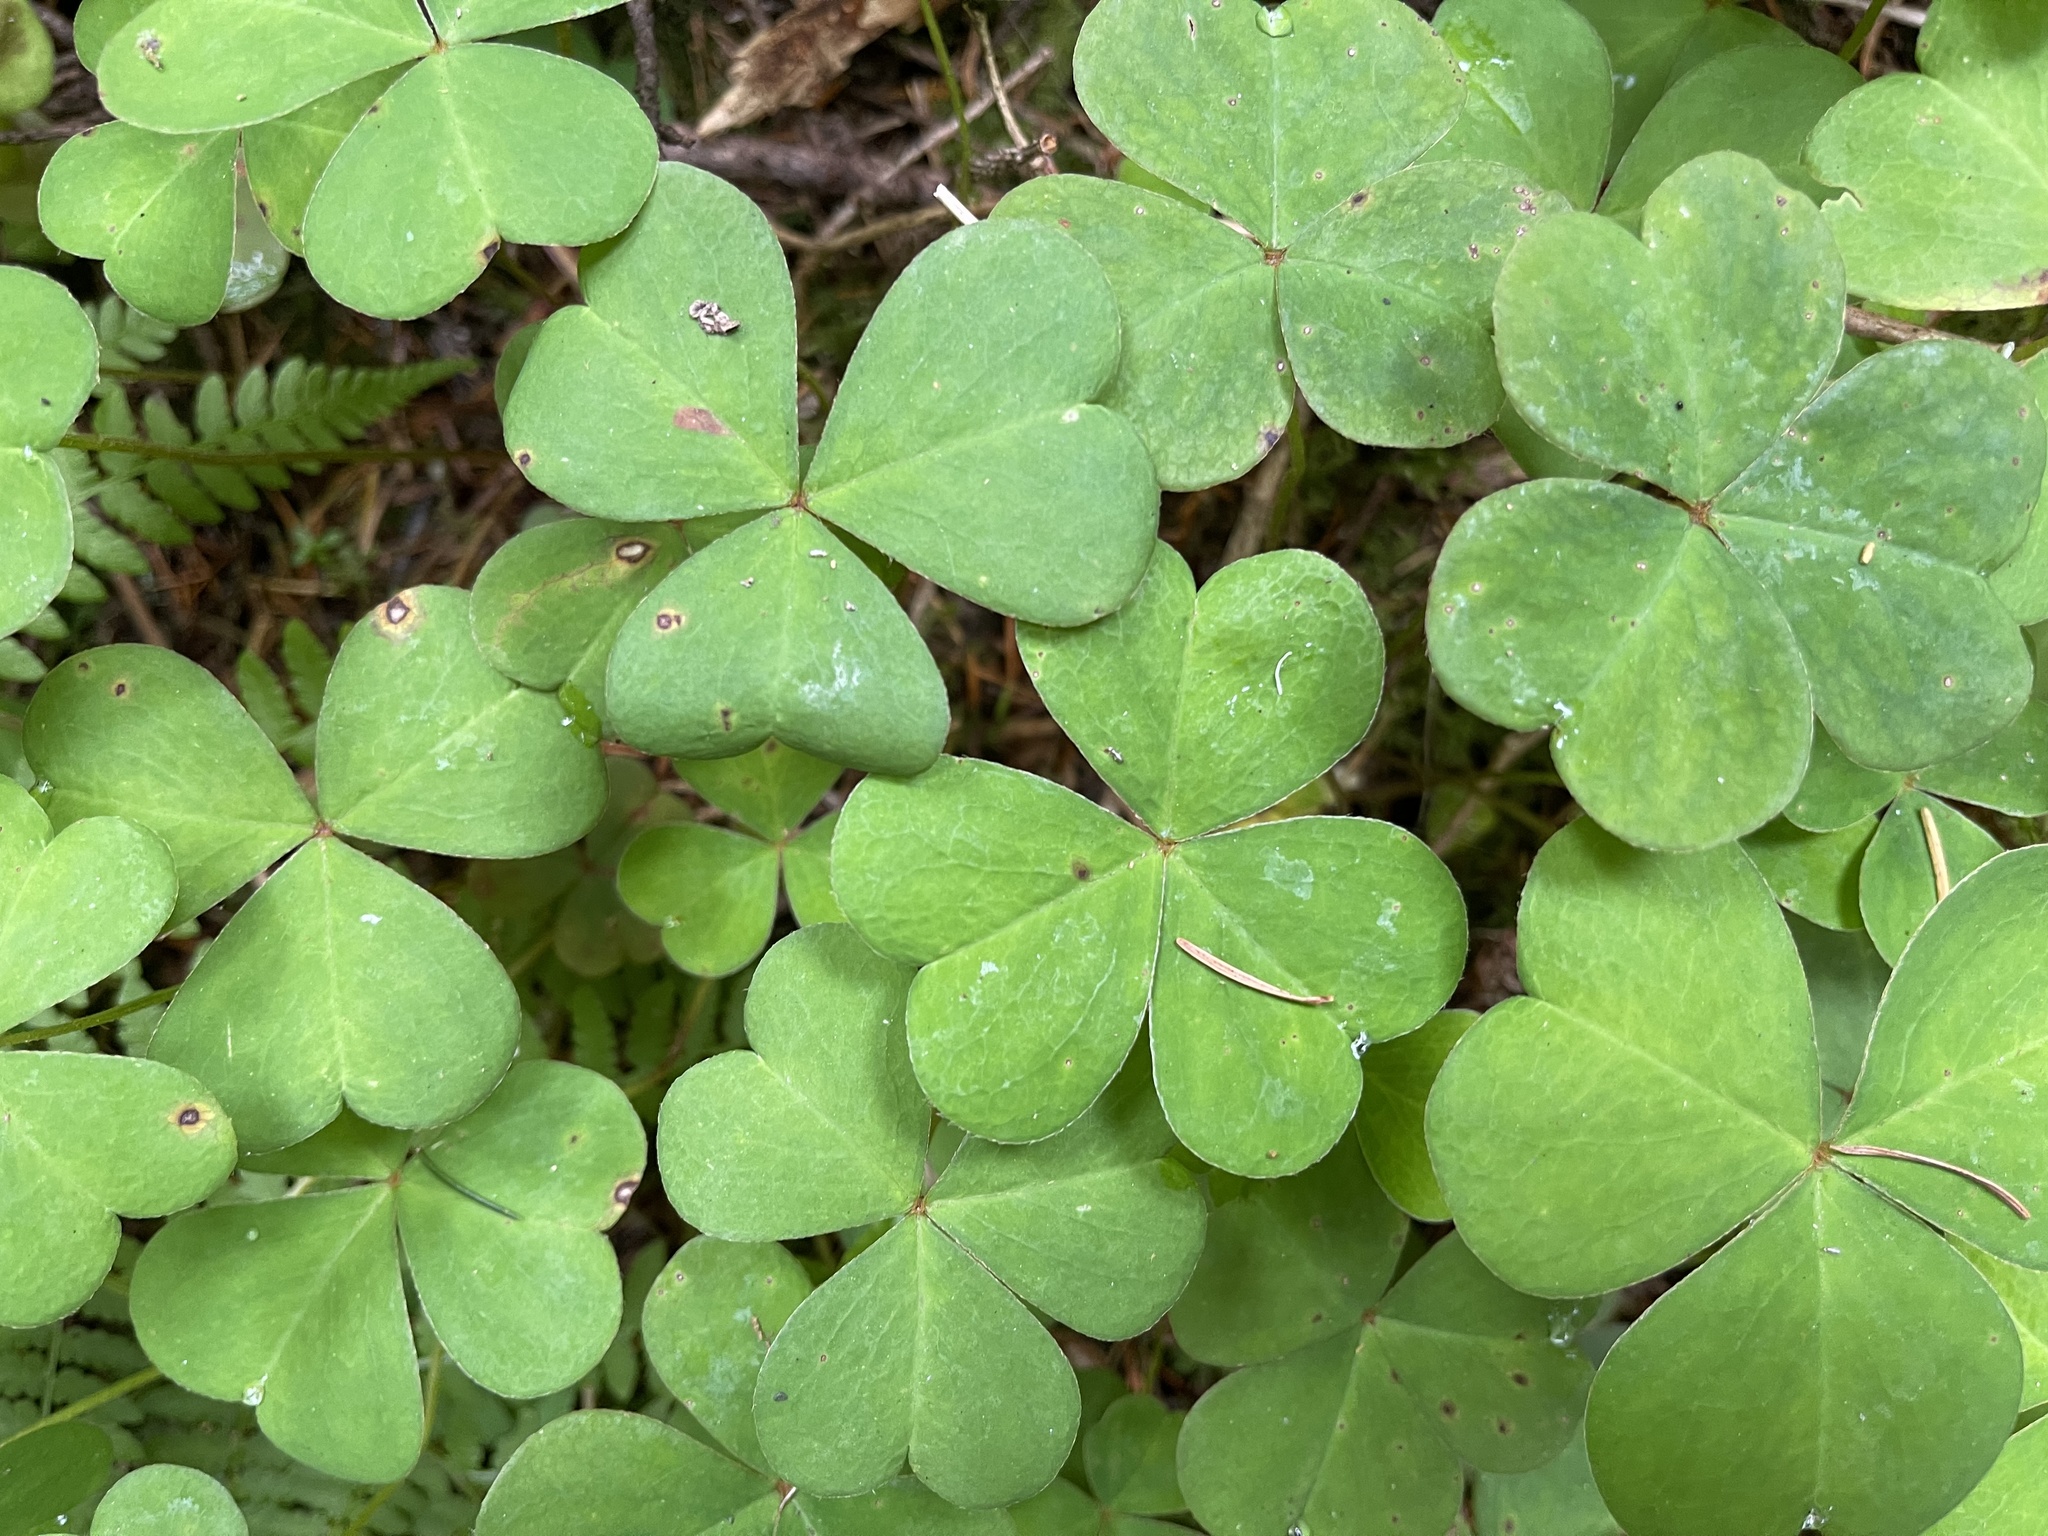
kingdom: Plantae
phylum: Tracheophyta
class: Magnoliopsida
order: Oxalidales
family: Oxalidaceae
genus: Oxalis
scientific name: Oxalis oregana
